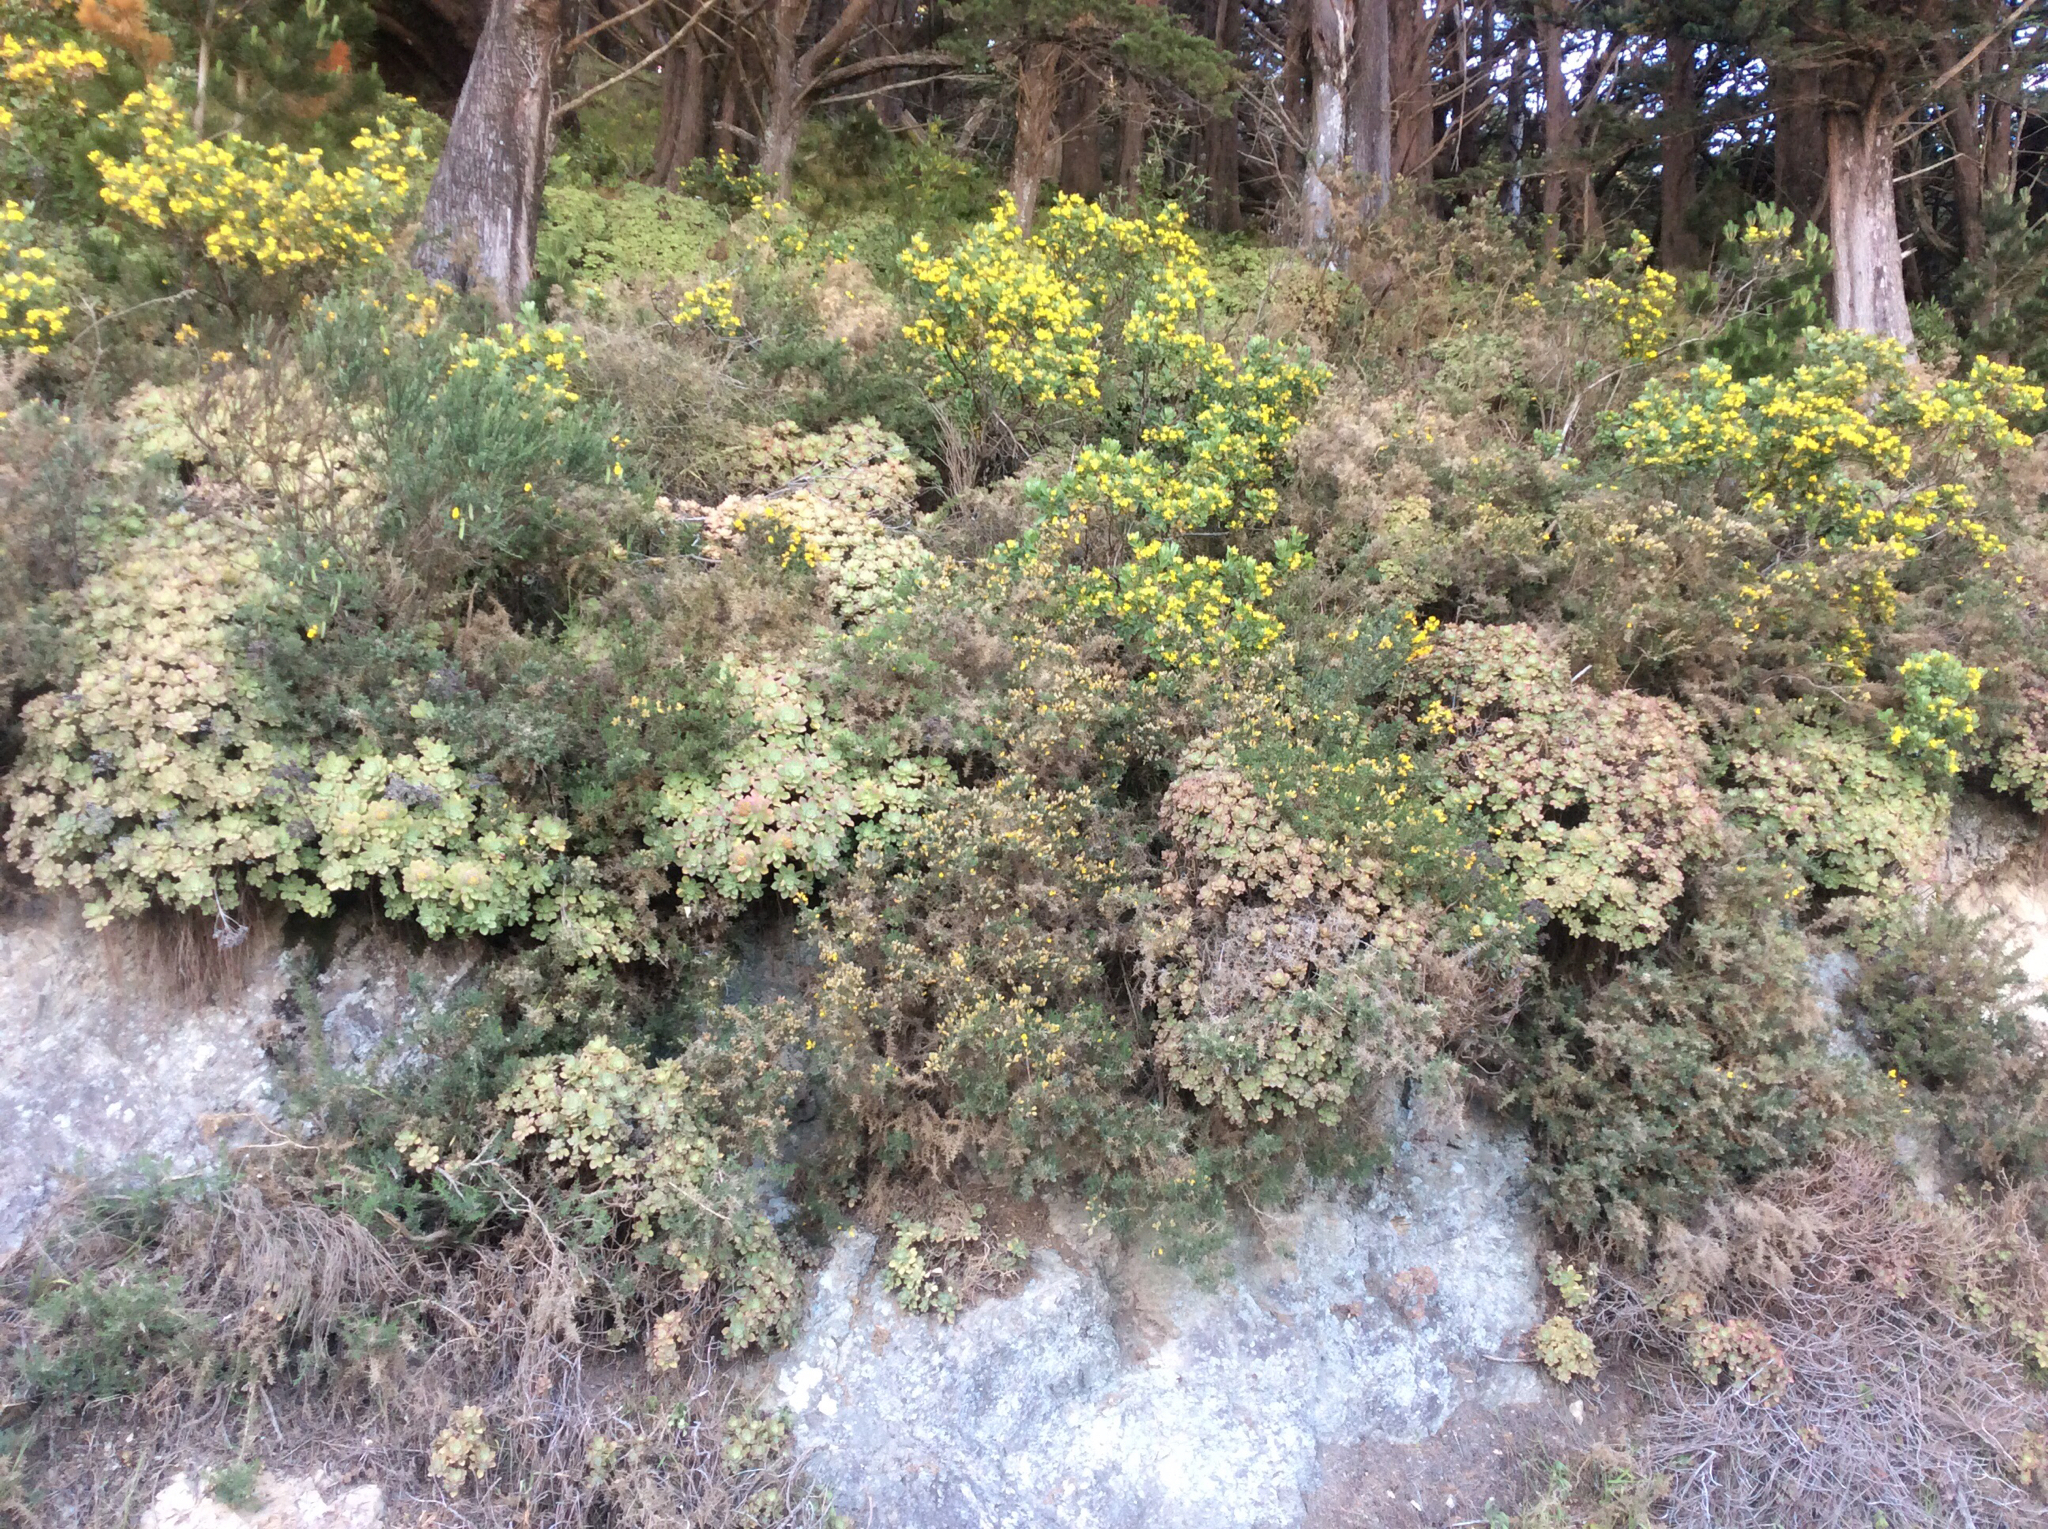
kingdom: Plantae
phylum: Tracheophyta
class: Magnoliopsida
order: Saxifragales
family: Crassulaceae
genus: Aeonium
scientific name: Aeonium haworthii
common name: Haworth's aeonium
